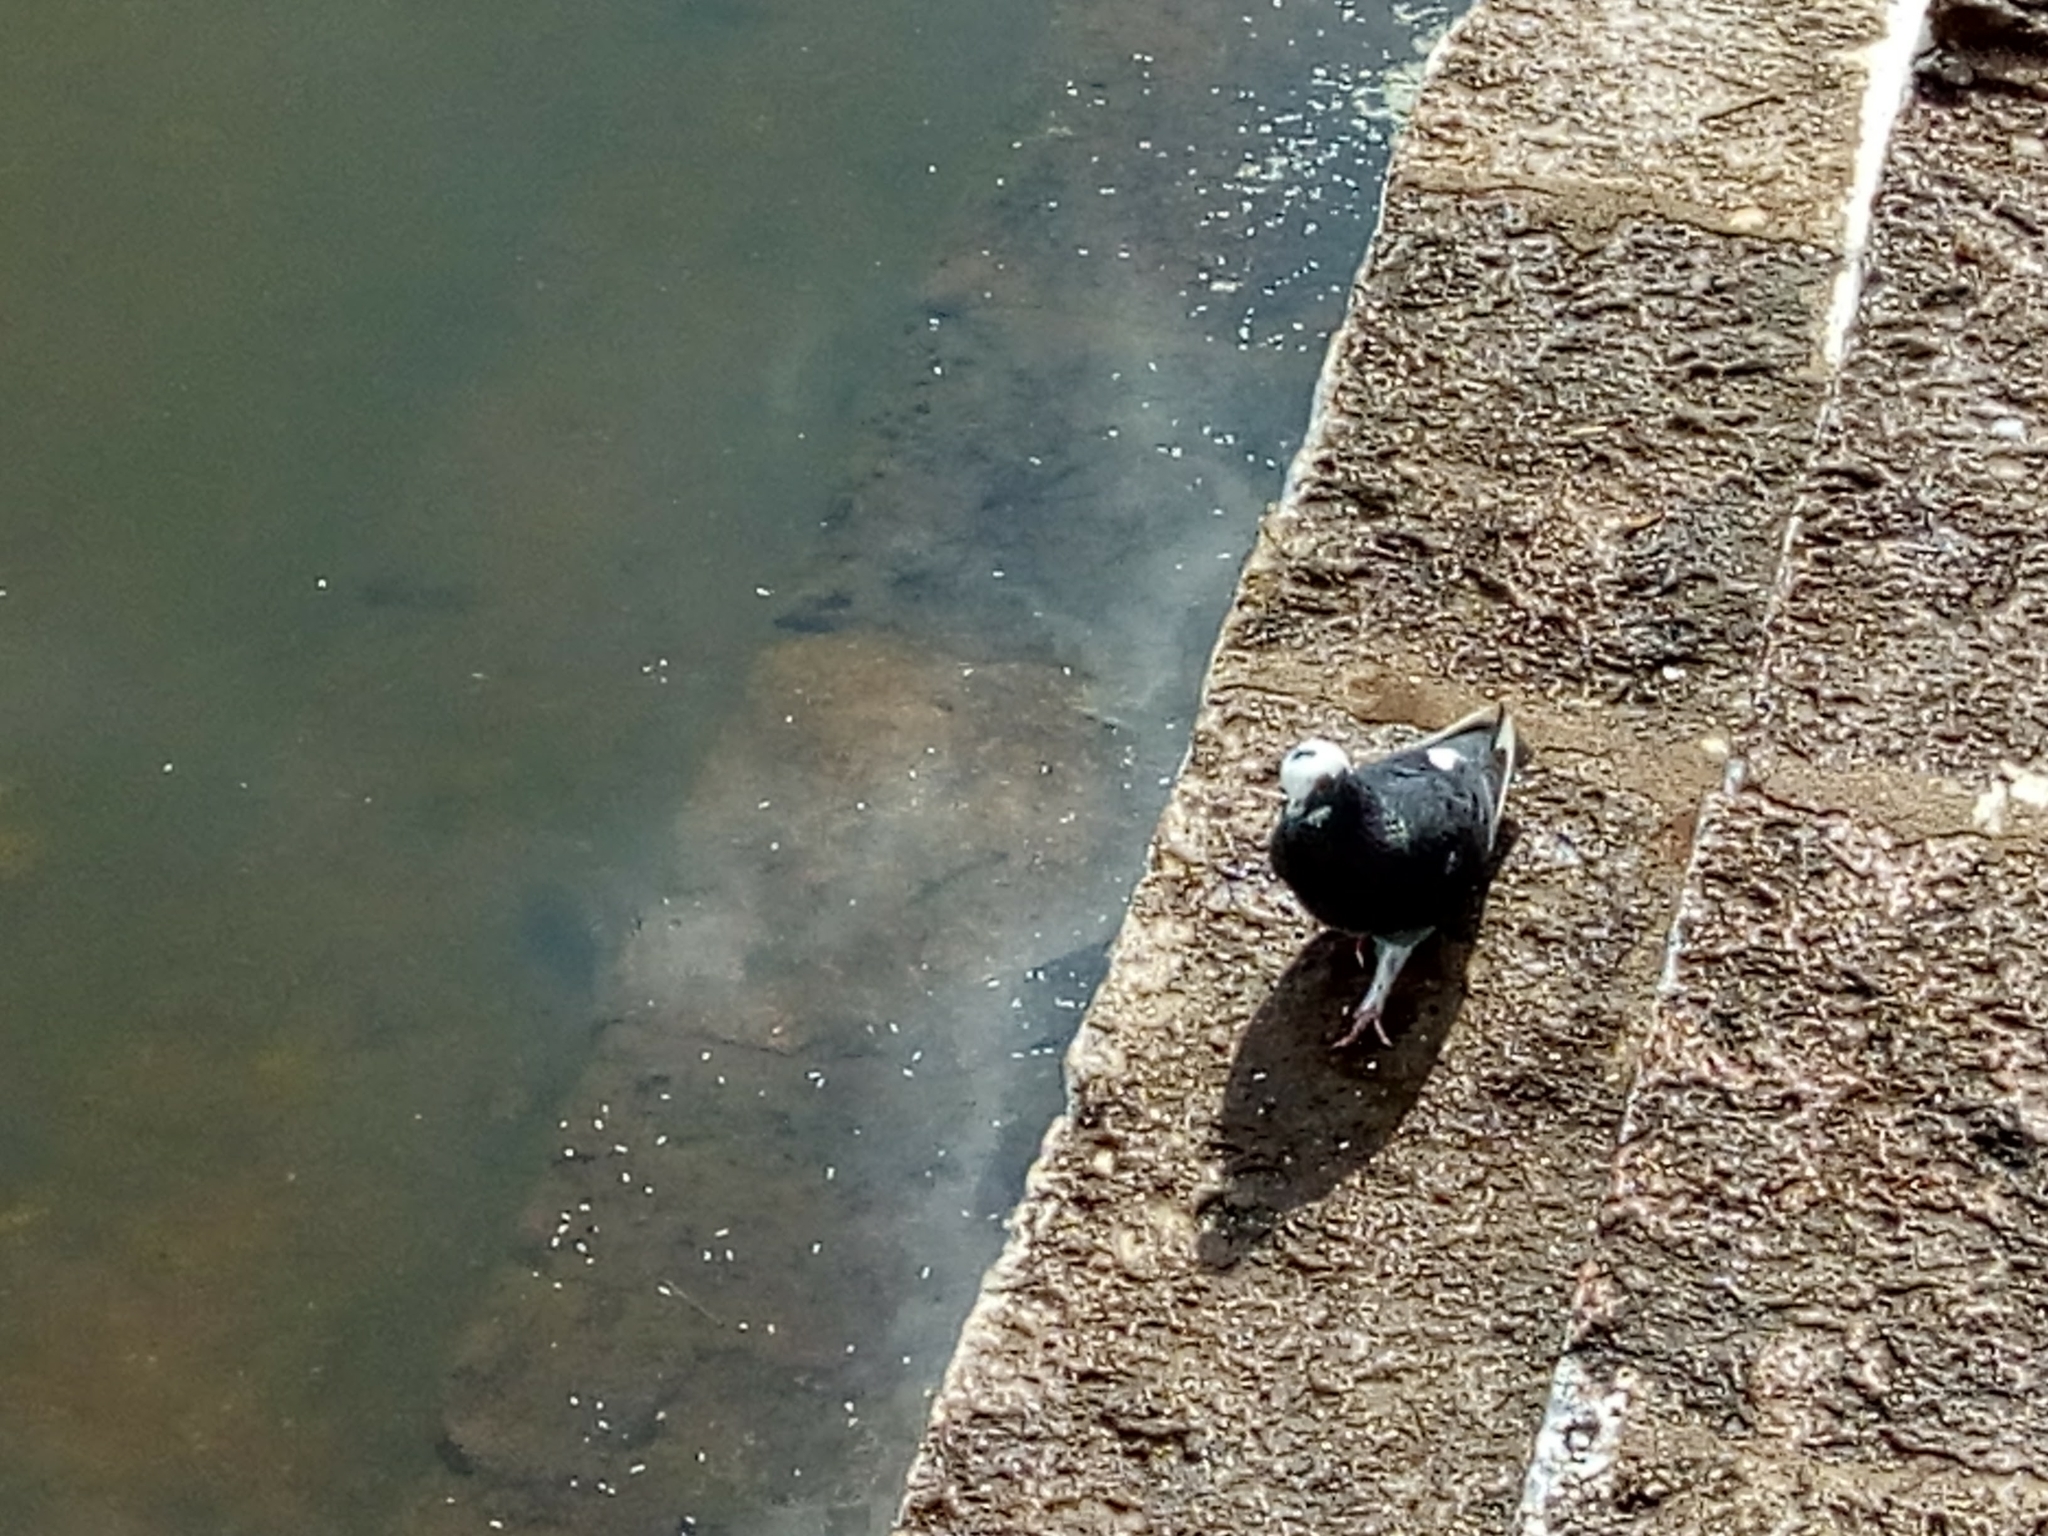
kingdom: Animalia
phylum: Chordata
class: Aves
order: Columbiformes
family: Columbidae
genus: Columba
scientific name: Columba livia
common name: Rock pigeon
